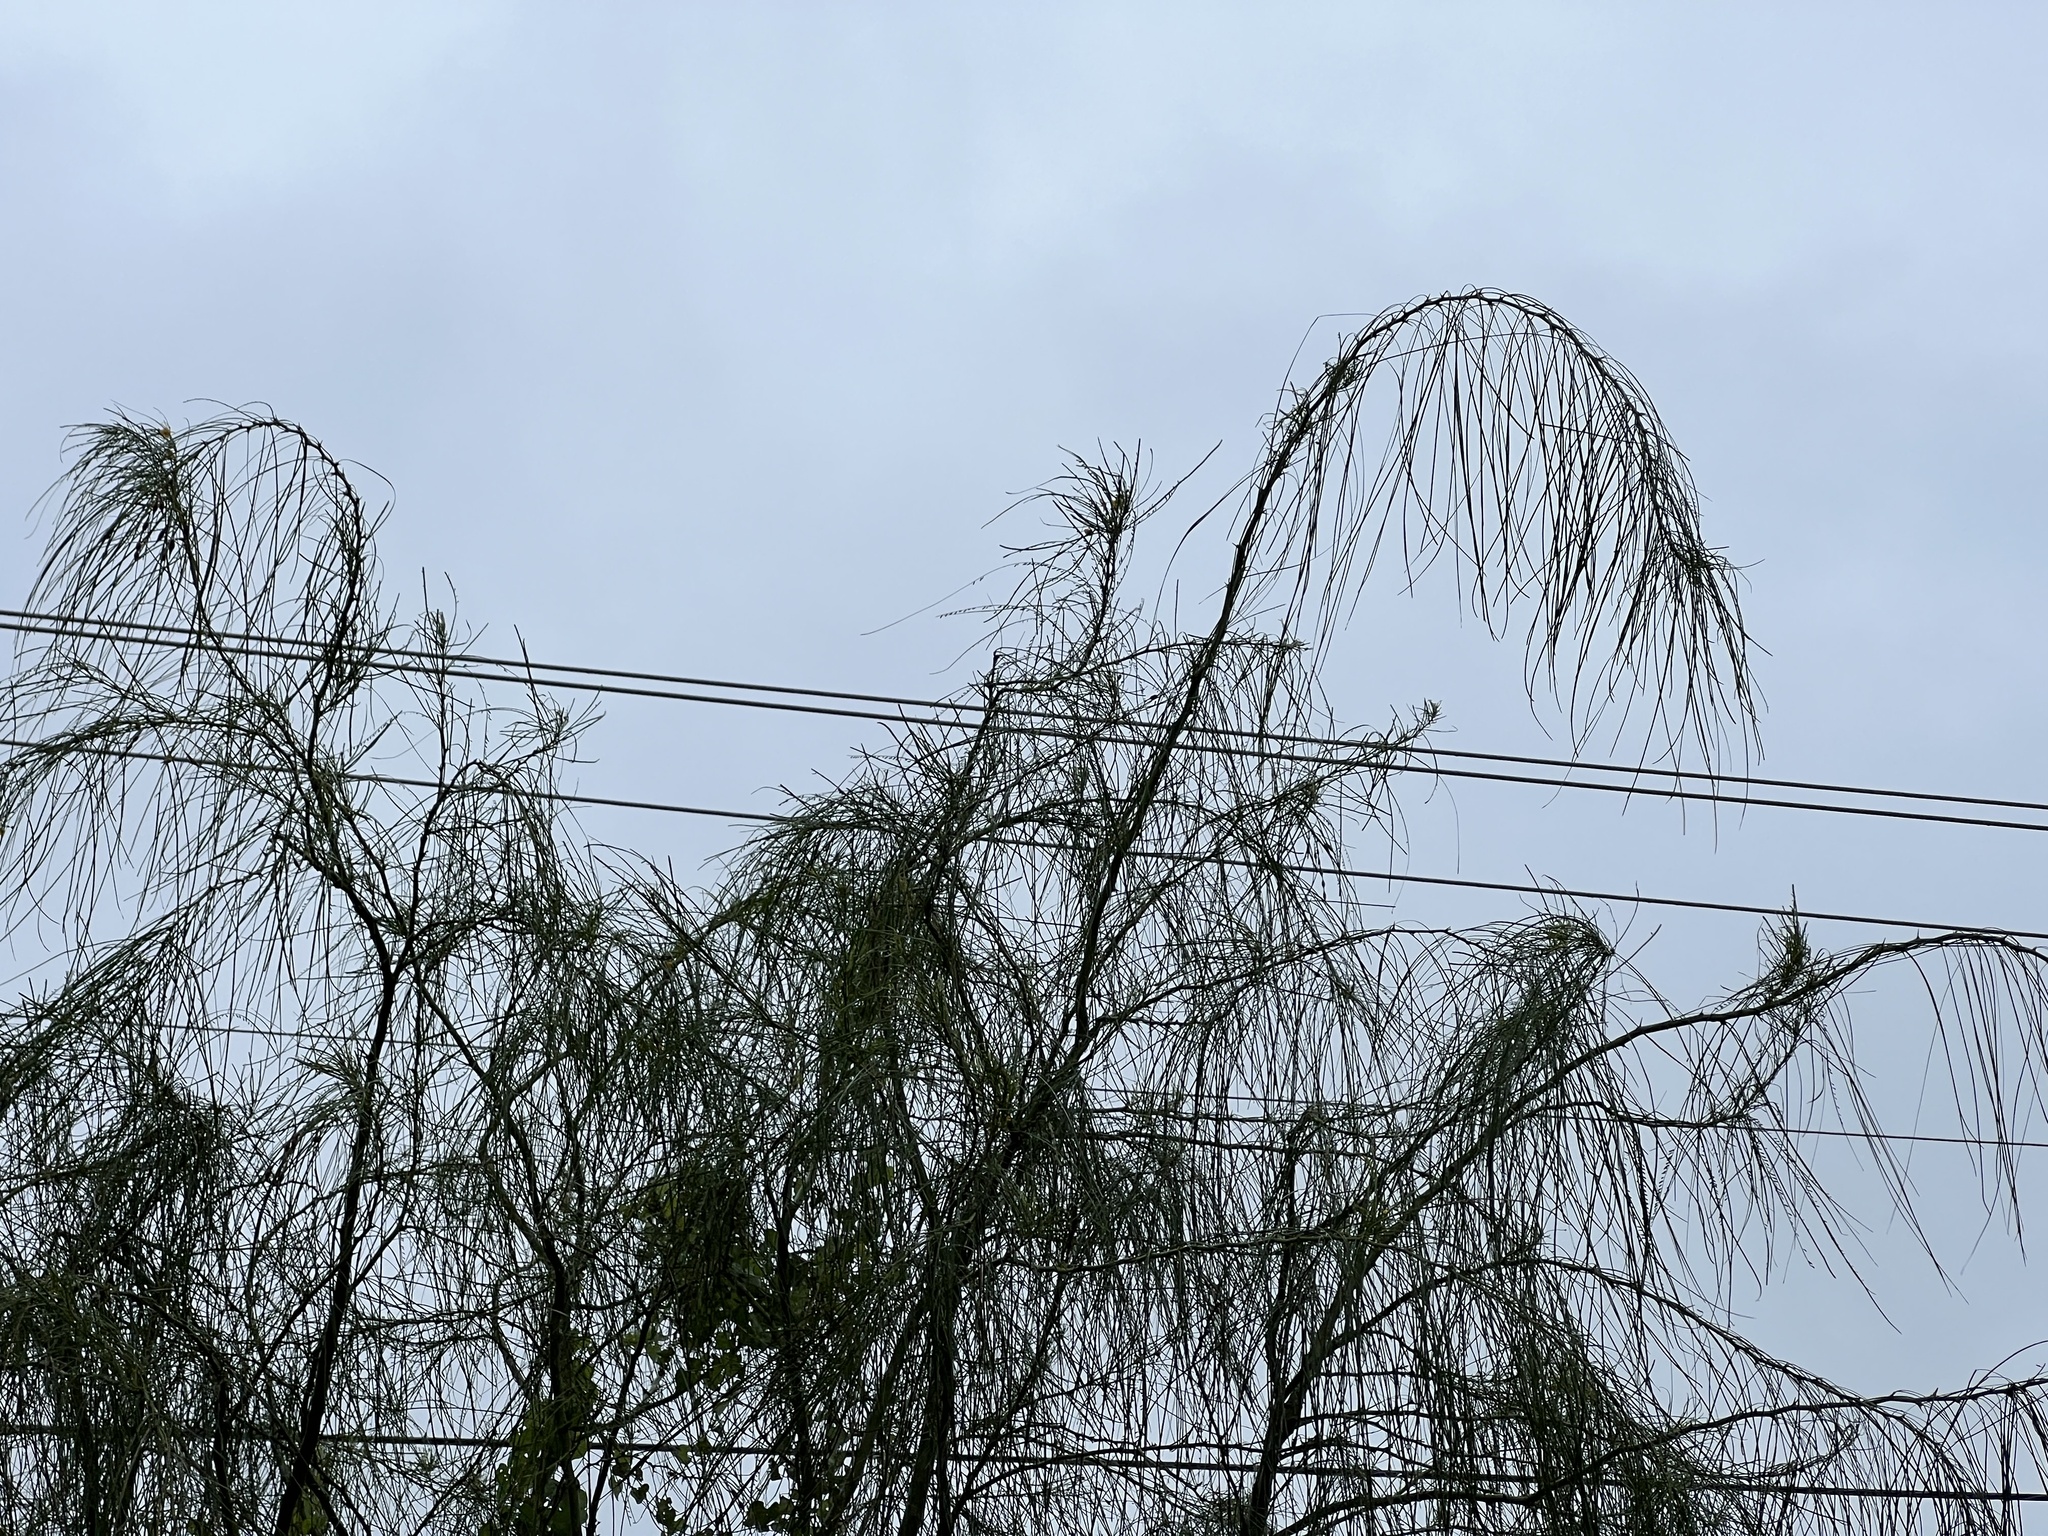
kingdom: Plantae
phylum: Tracheophyta
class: Magnoliopsida
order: Fabales
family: Fabaceae
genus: Parkinsonia
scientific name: Parkinsonia aculeata
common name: Jerusalem thorn
